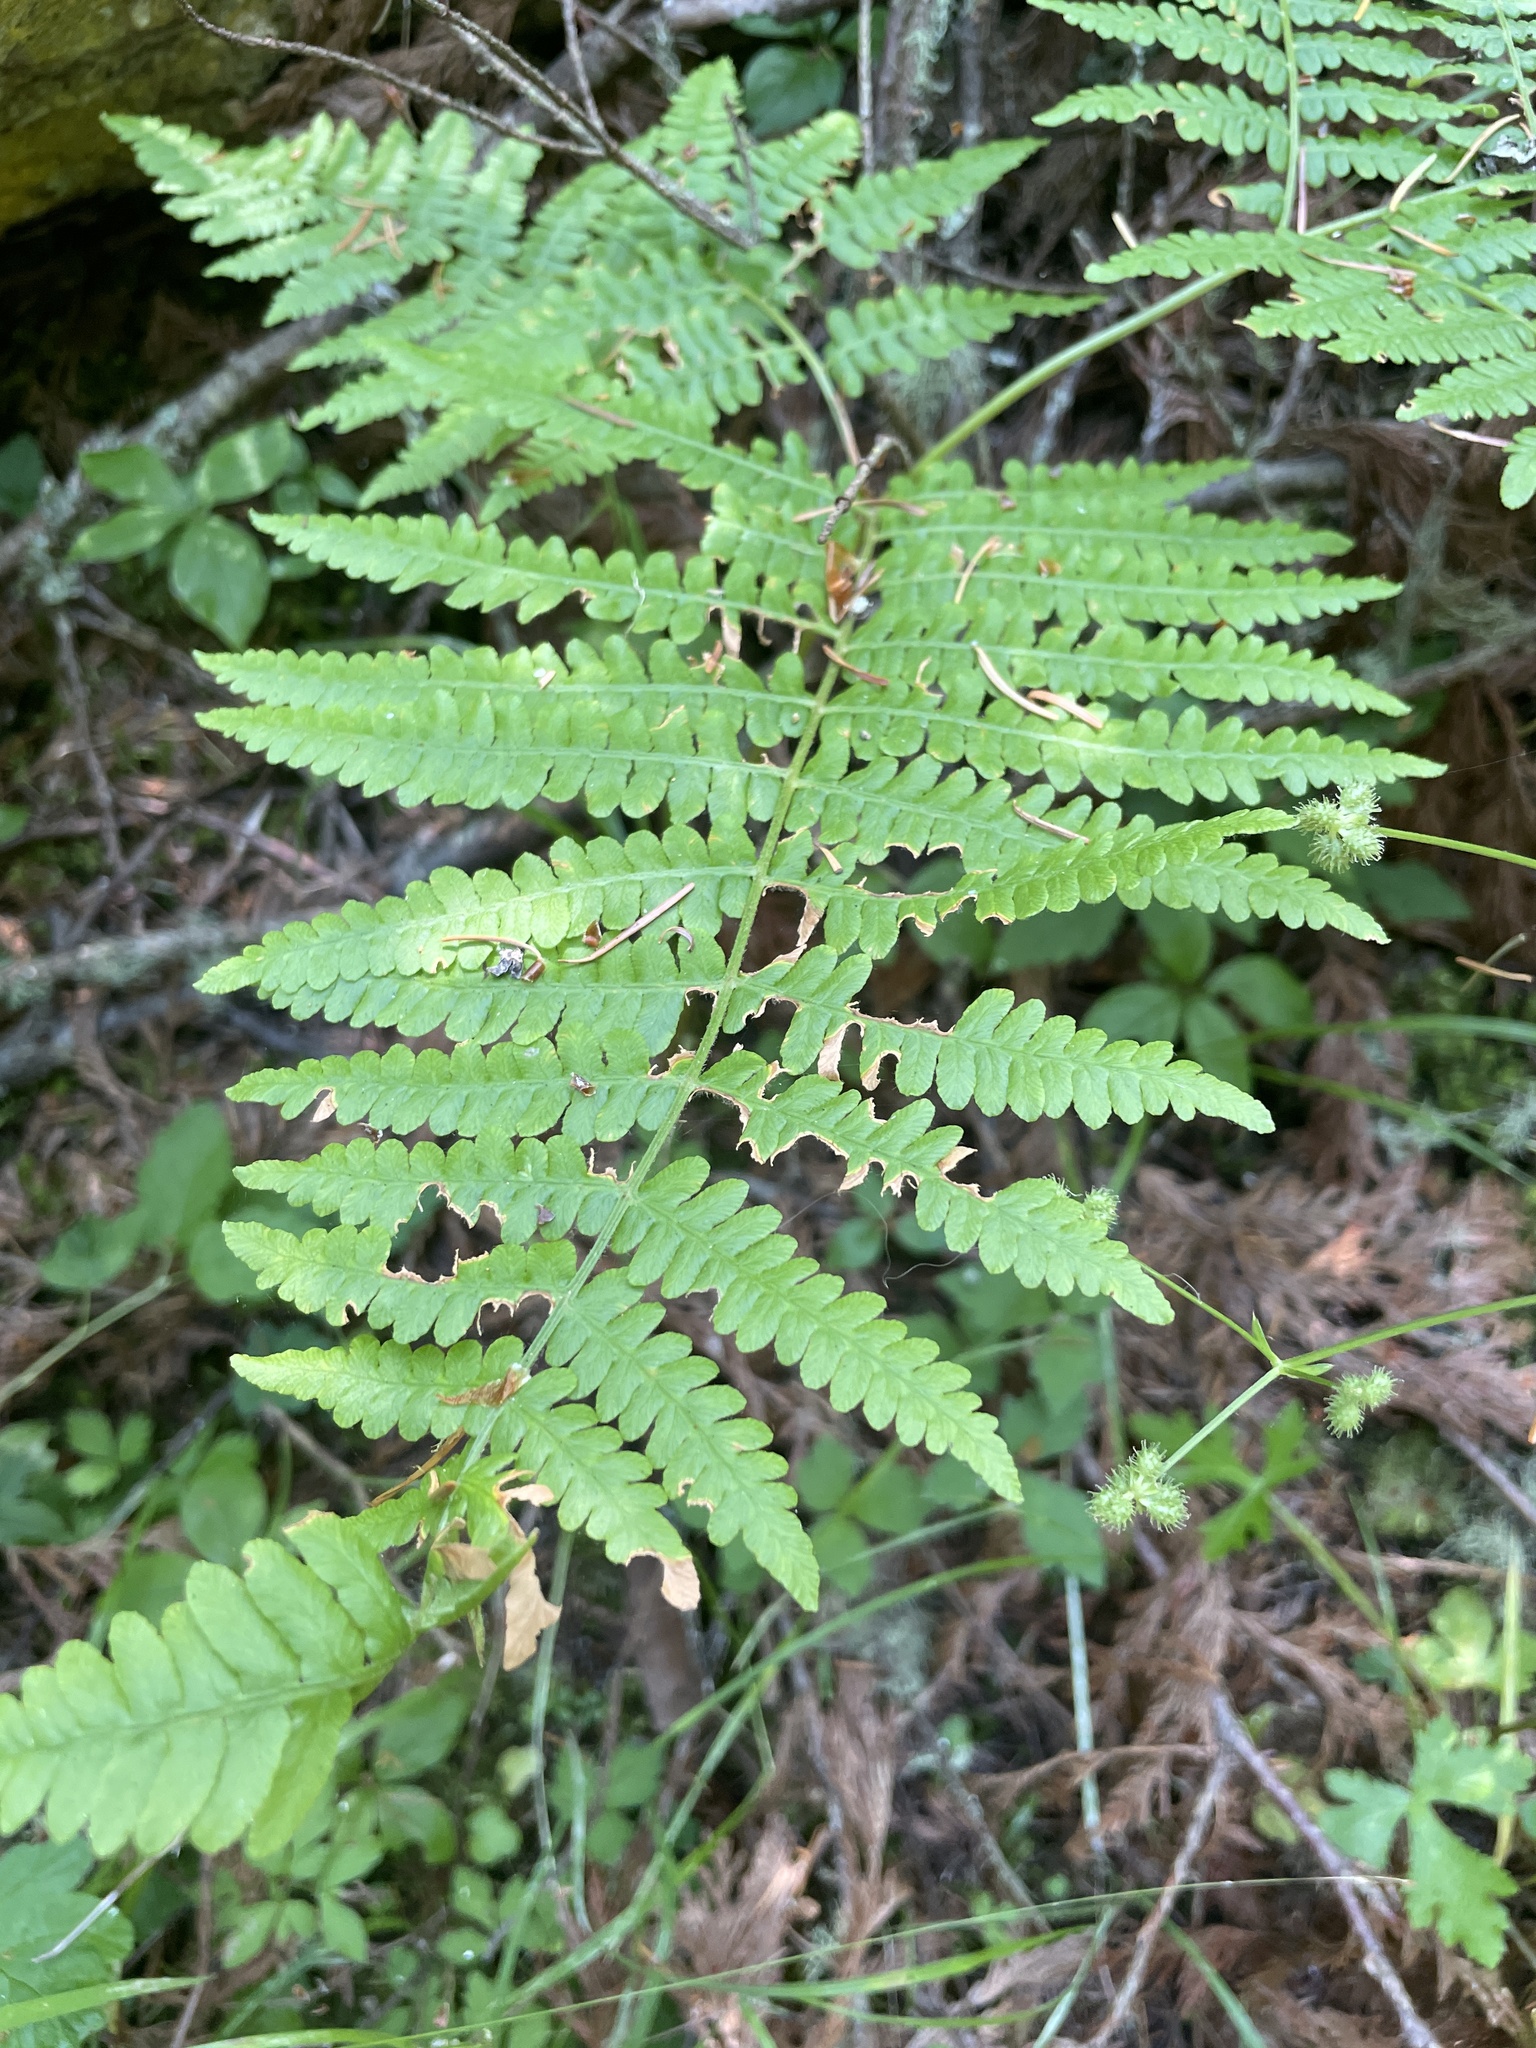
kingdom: Plantae
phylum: Tracheophyta
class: Polypodiopsida
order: Polypodiales
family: Dennstaedtiaceae
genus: Pteridium
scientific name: Pteridium aquilinum
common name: Bracken
